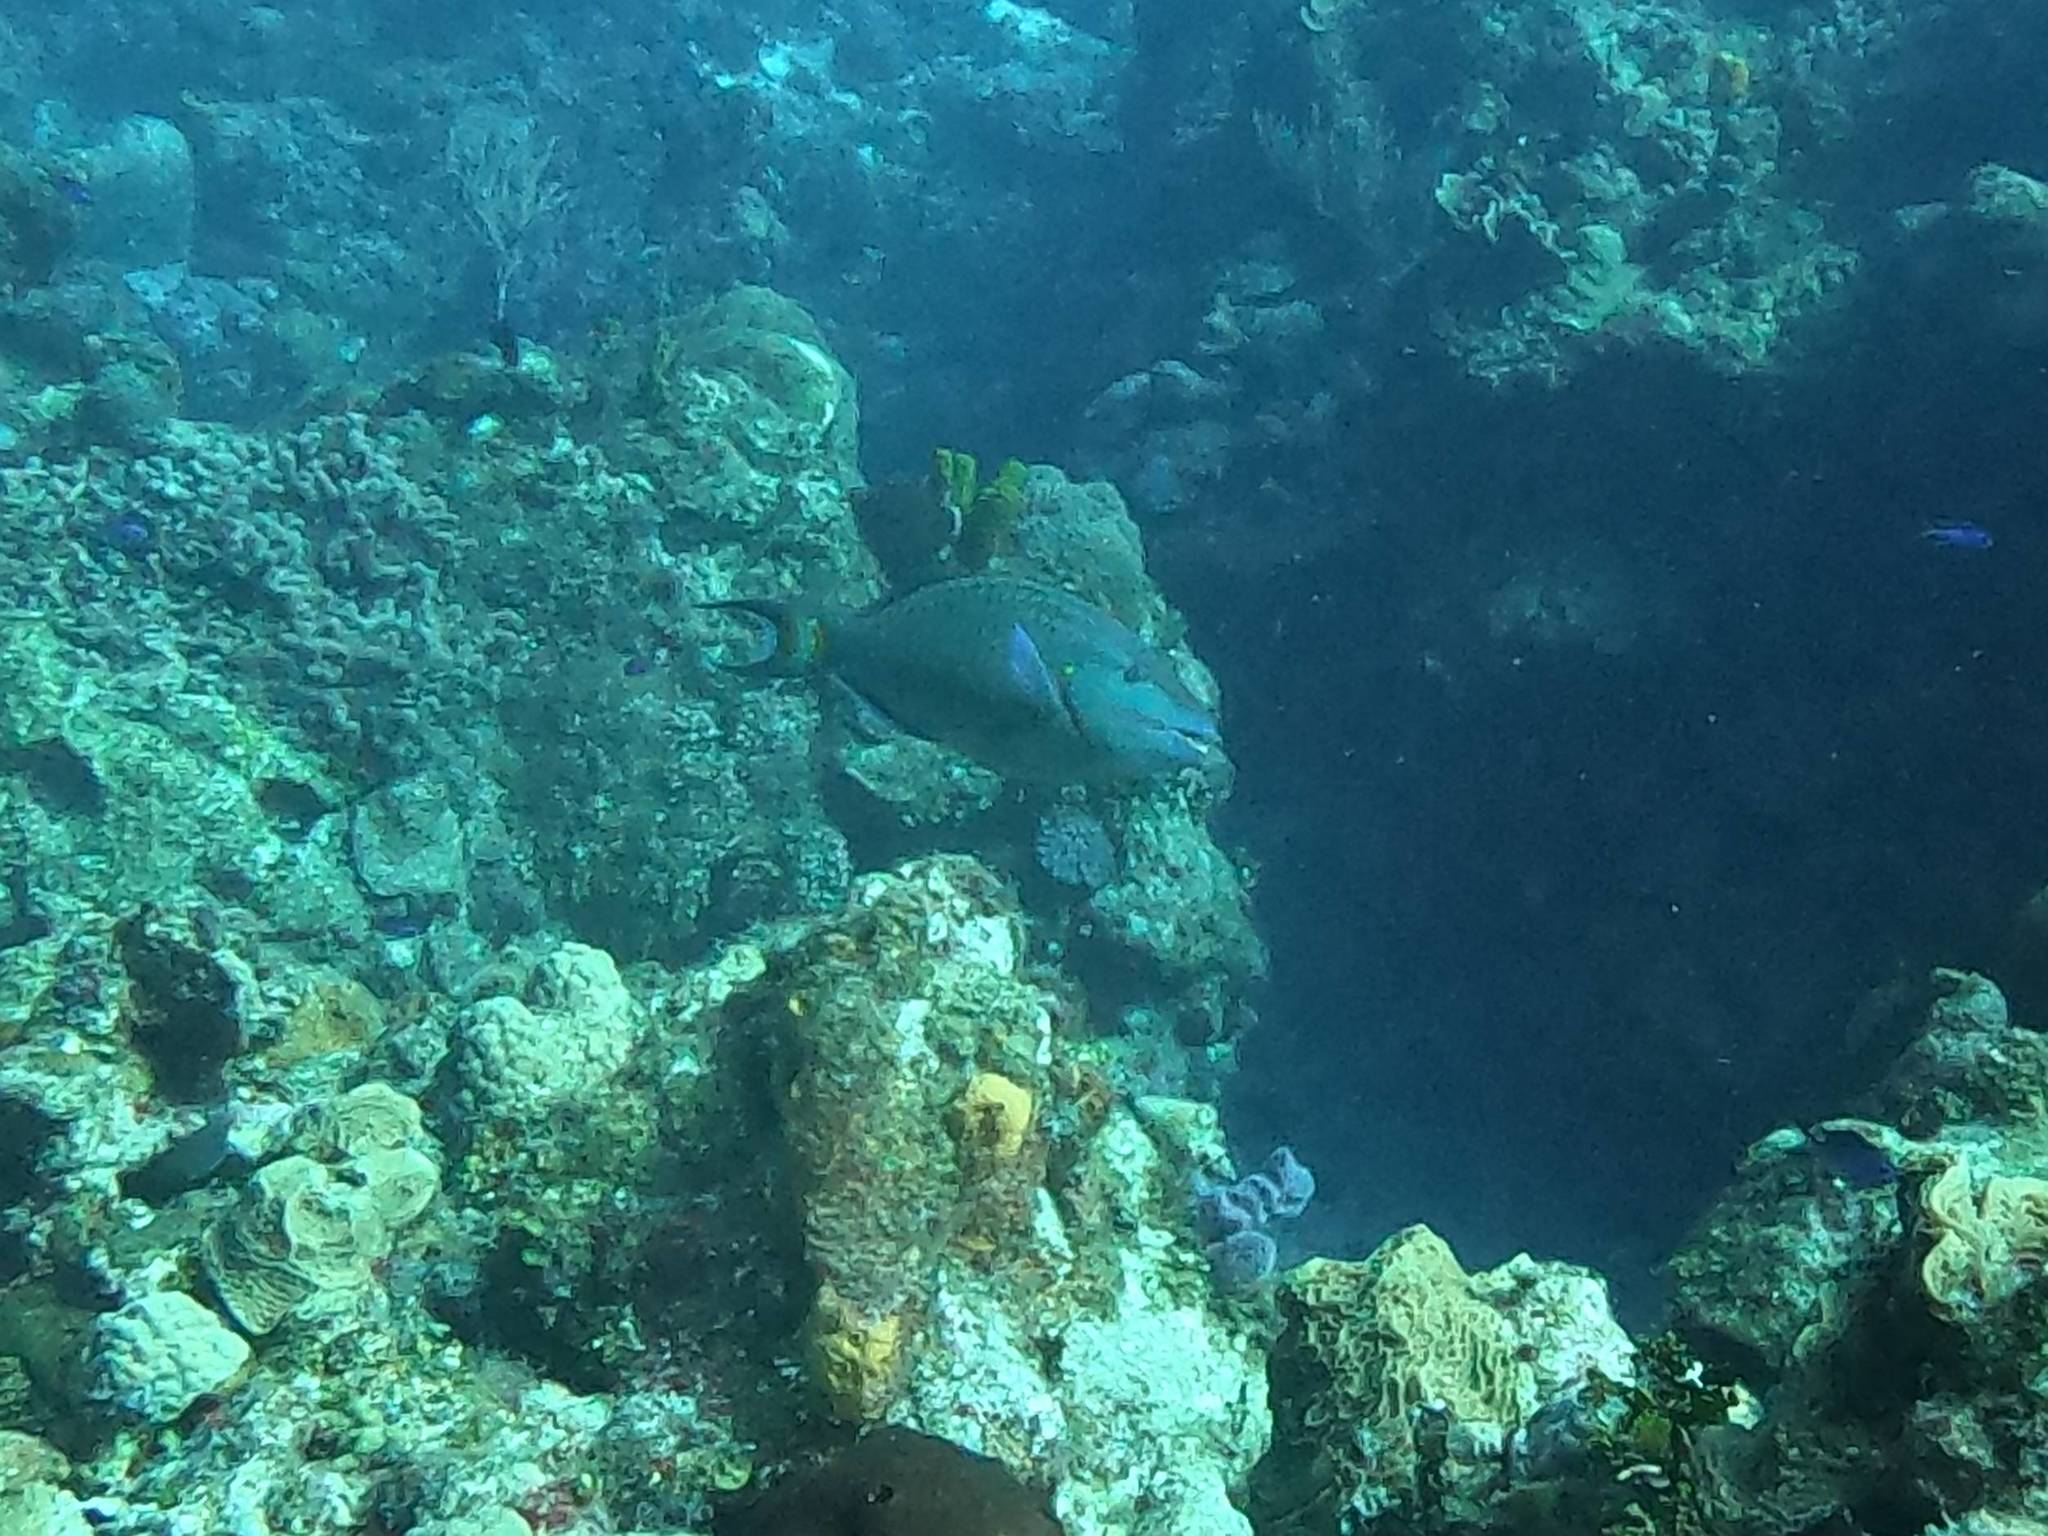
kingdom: Animalia
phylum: Chordata
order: Perciformes
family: Scaridae
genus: Sparisoma
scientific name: Sparisoma viride
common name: Stoplight parrotfish
